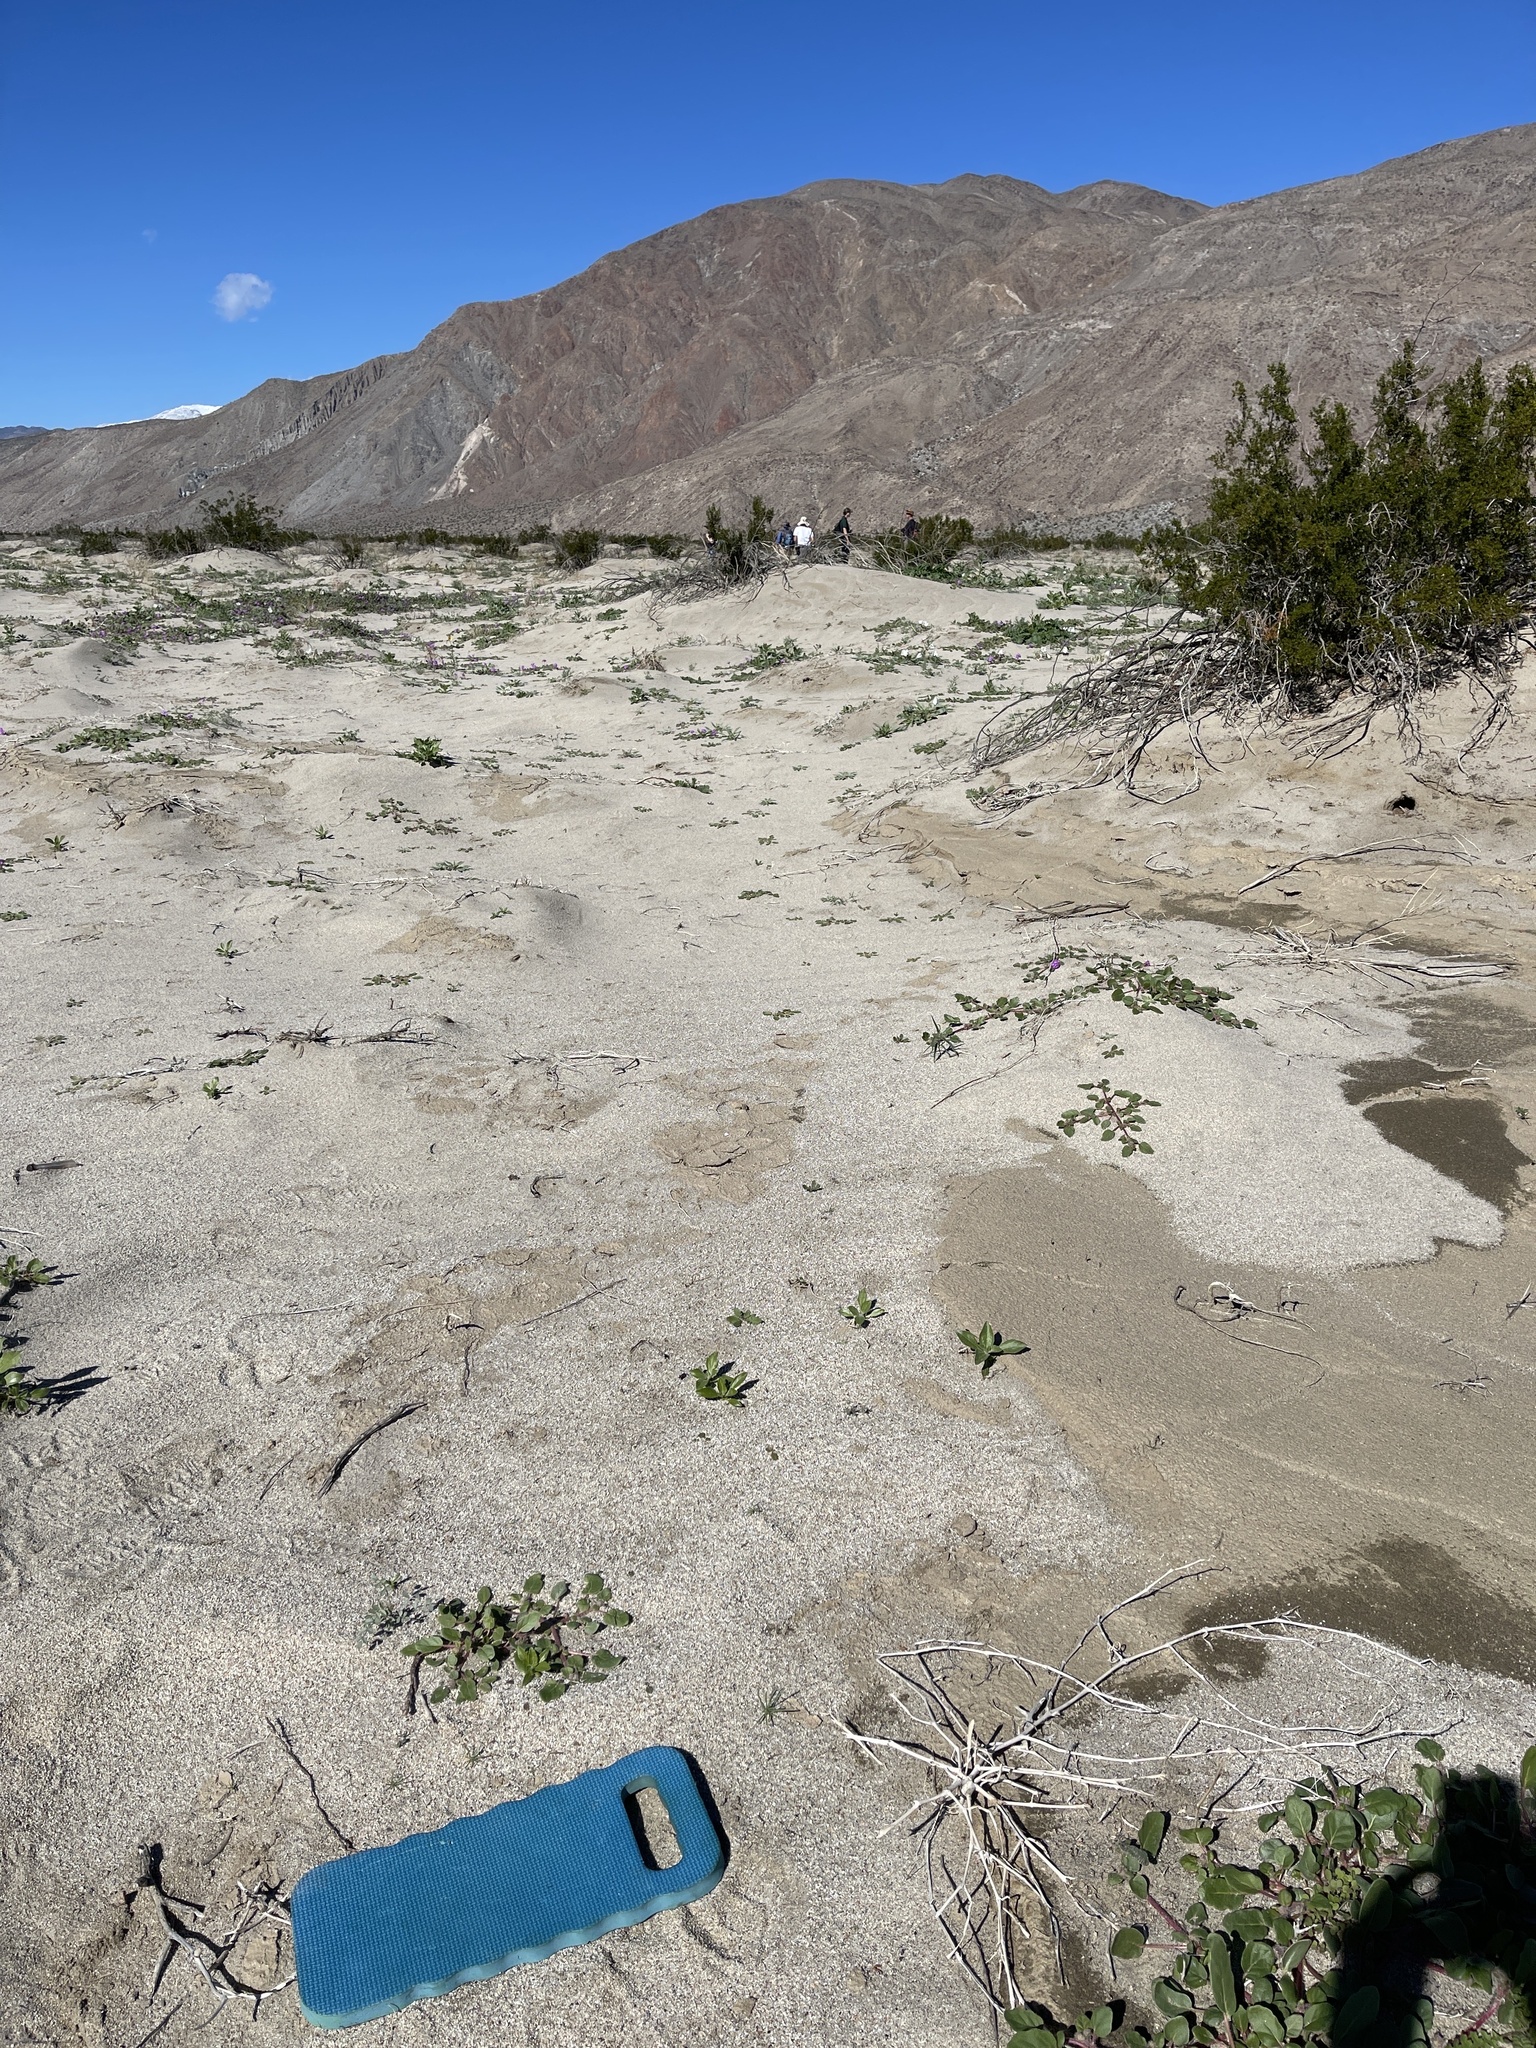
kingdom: Plantae
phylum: Tracheophyta
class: Magnoliopsida
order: Fabales
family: Fabaceae
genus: Astragalus
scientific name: Astragalus lentiginosus
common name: Freckled milkvetch
